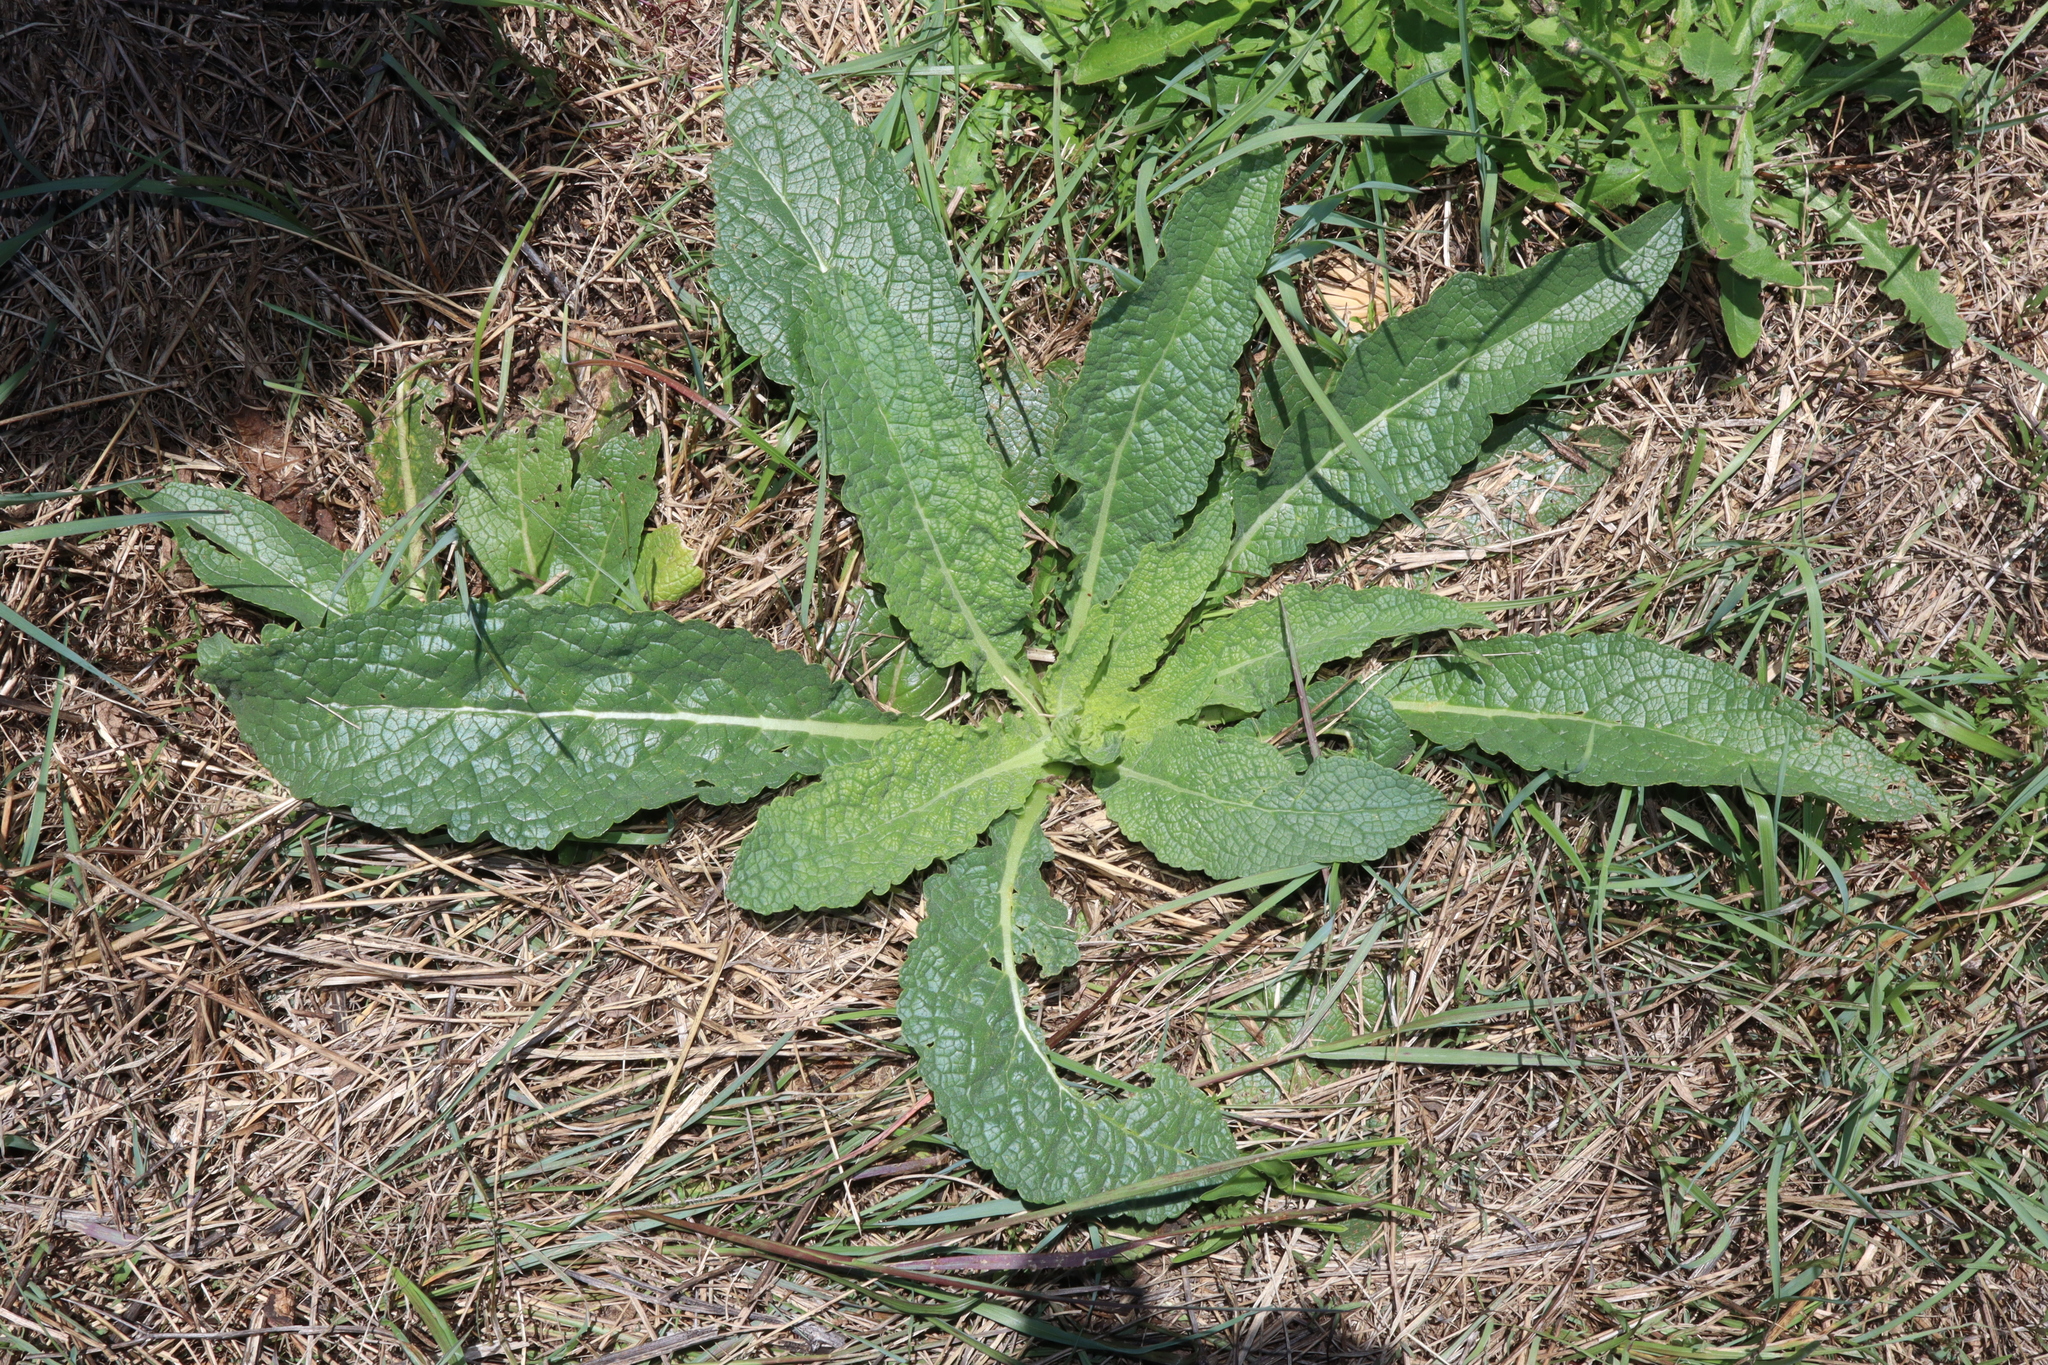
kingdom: Plantae
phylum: Tracheophyta
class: Magnoliopsida
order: Lamiales
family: Scrophulariaceae
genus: Verbascum
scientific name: Verbascum virgatum
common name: Twiggy mullein
